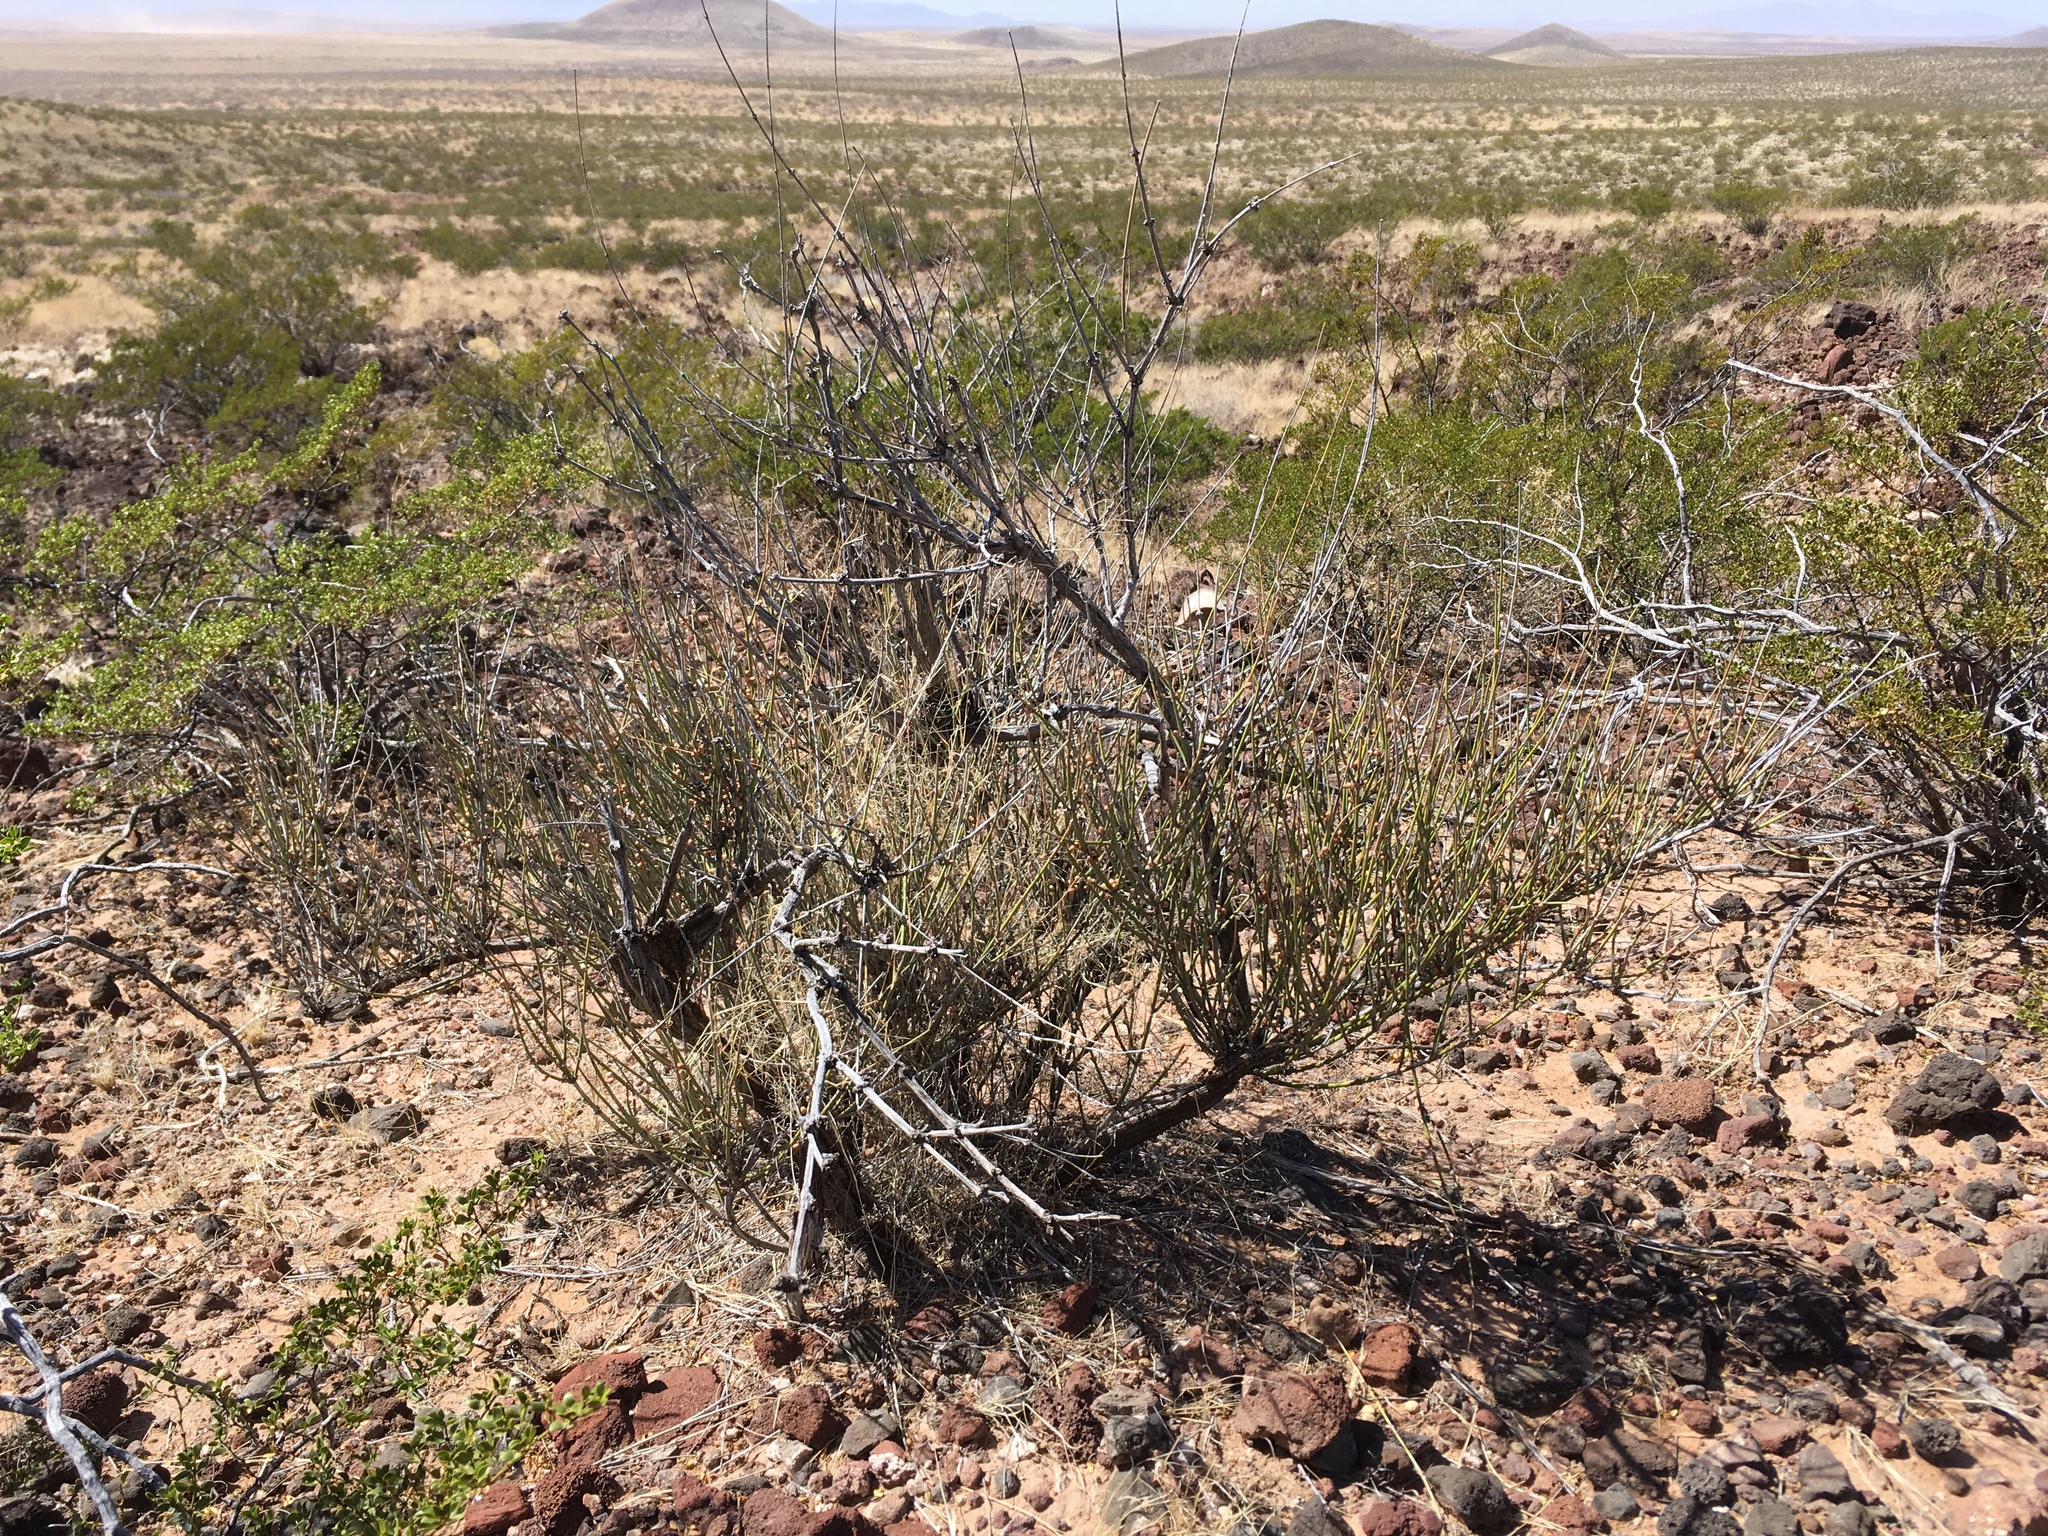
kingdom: Plantae
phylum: Tracheophyta
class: Gnetopsida
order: Ephedrales
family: Ephedraceae
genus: Ephedra
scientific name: Ephedra trifurca
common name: Mexican-tea
